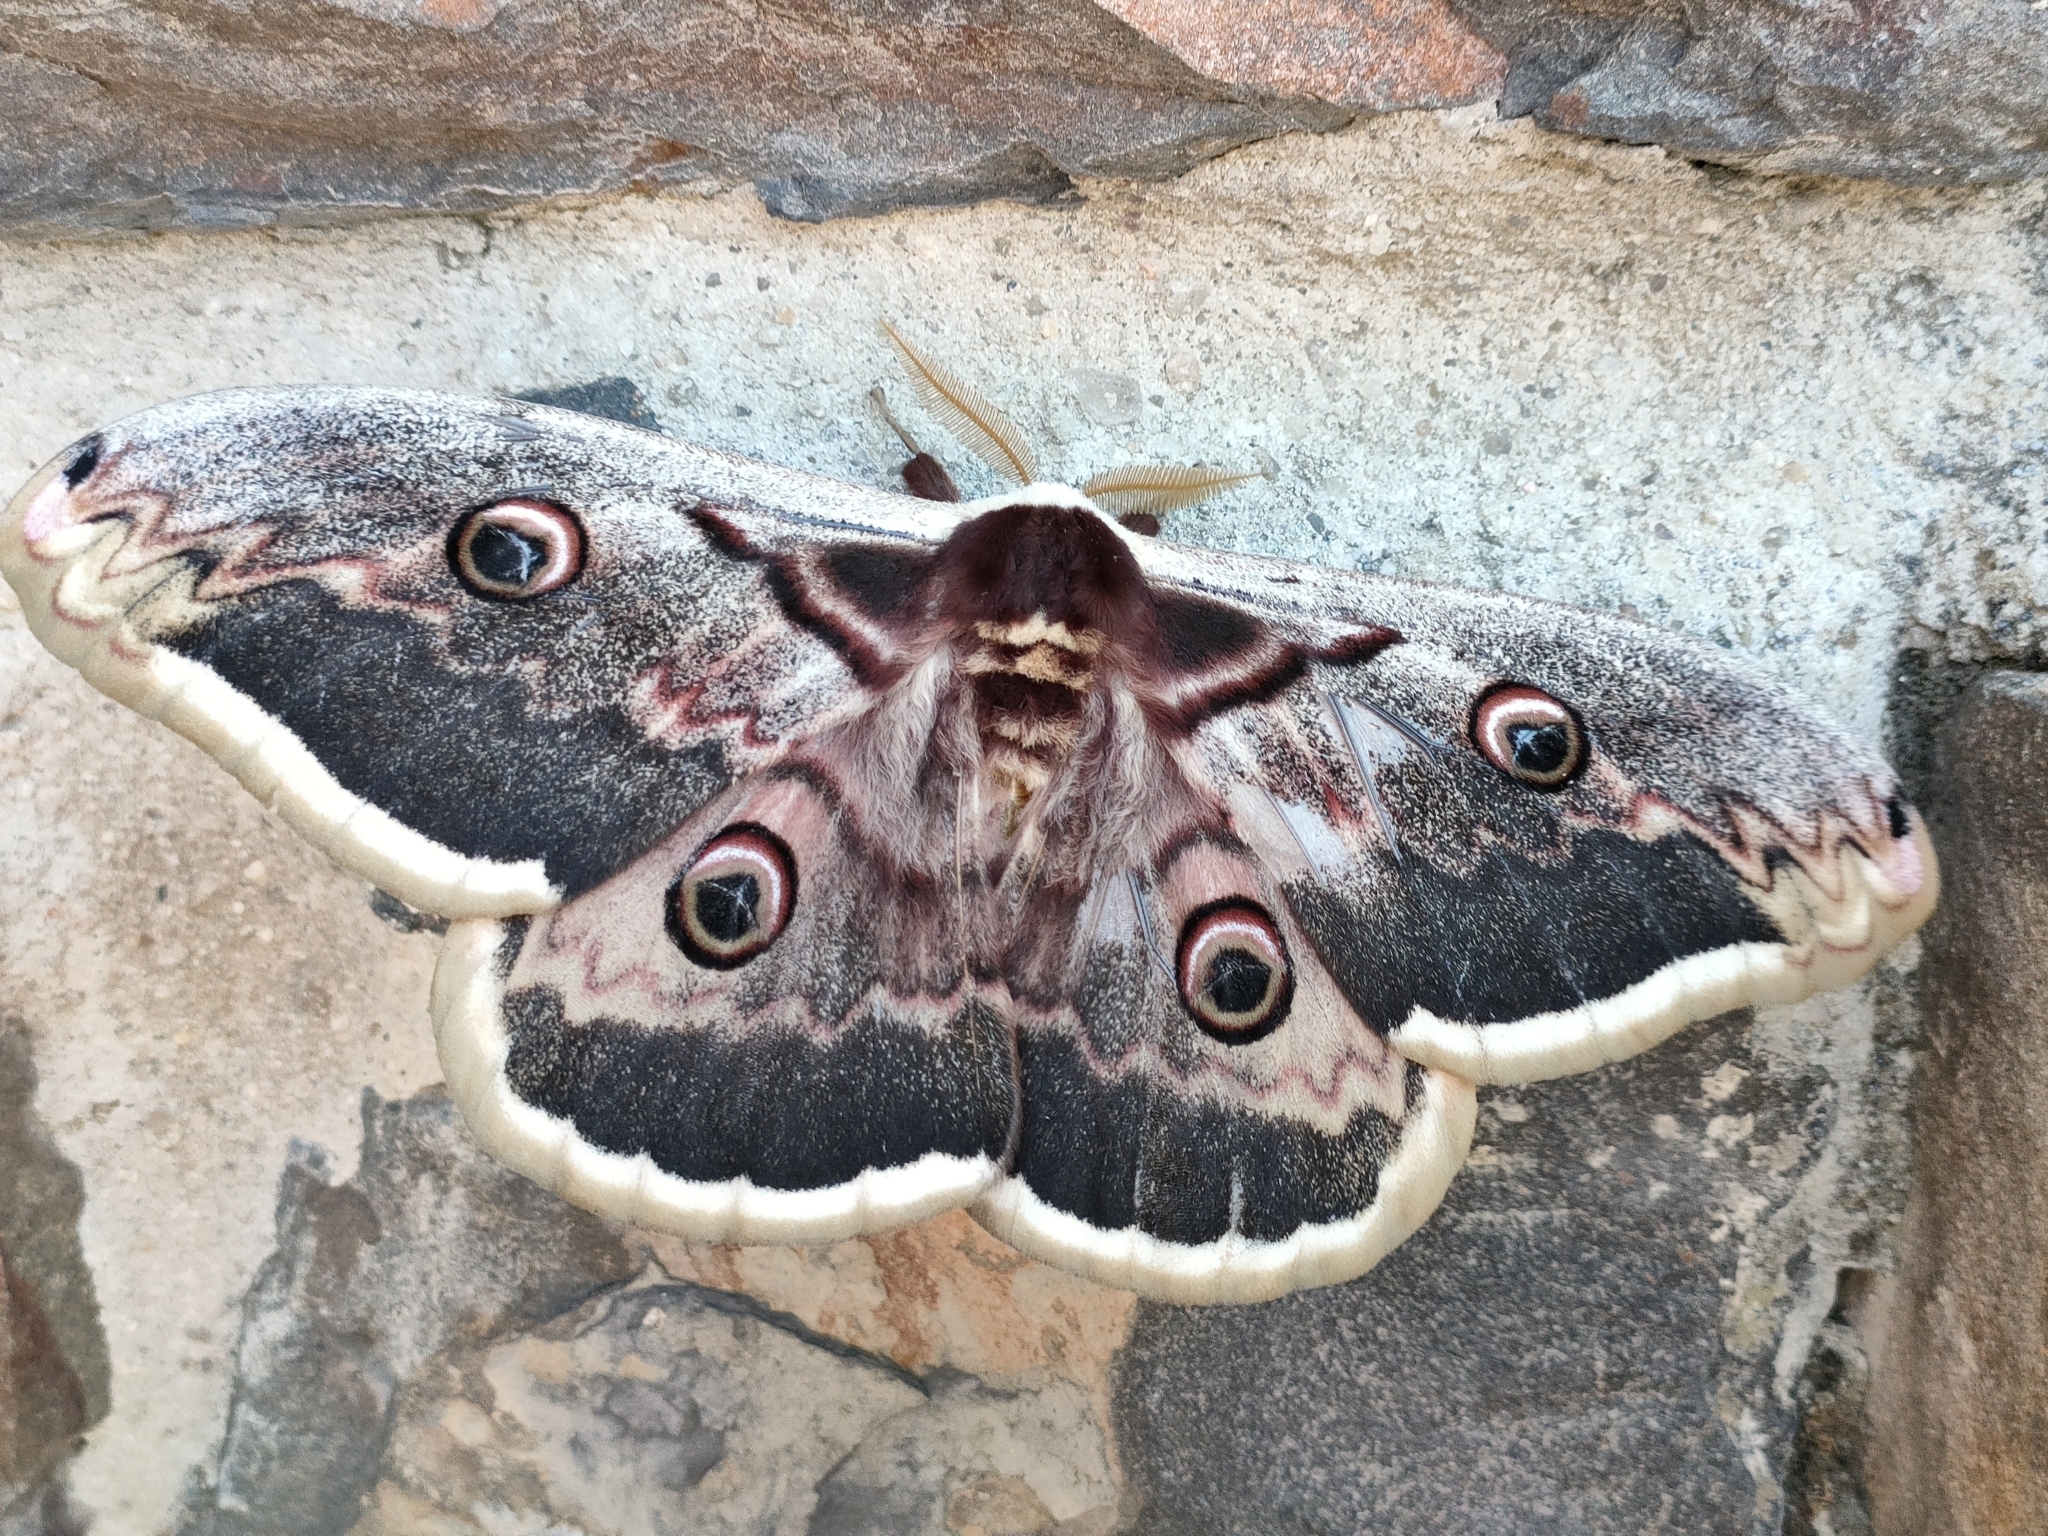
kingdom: Animalia
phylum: Arthropoda
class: Insecta
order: Lepidoptera
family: Saturniidae
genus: Saturnia
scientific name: Saturnia pyri
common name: Great peacock moth
